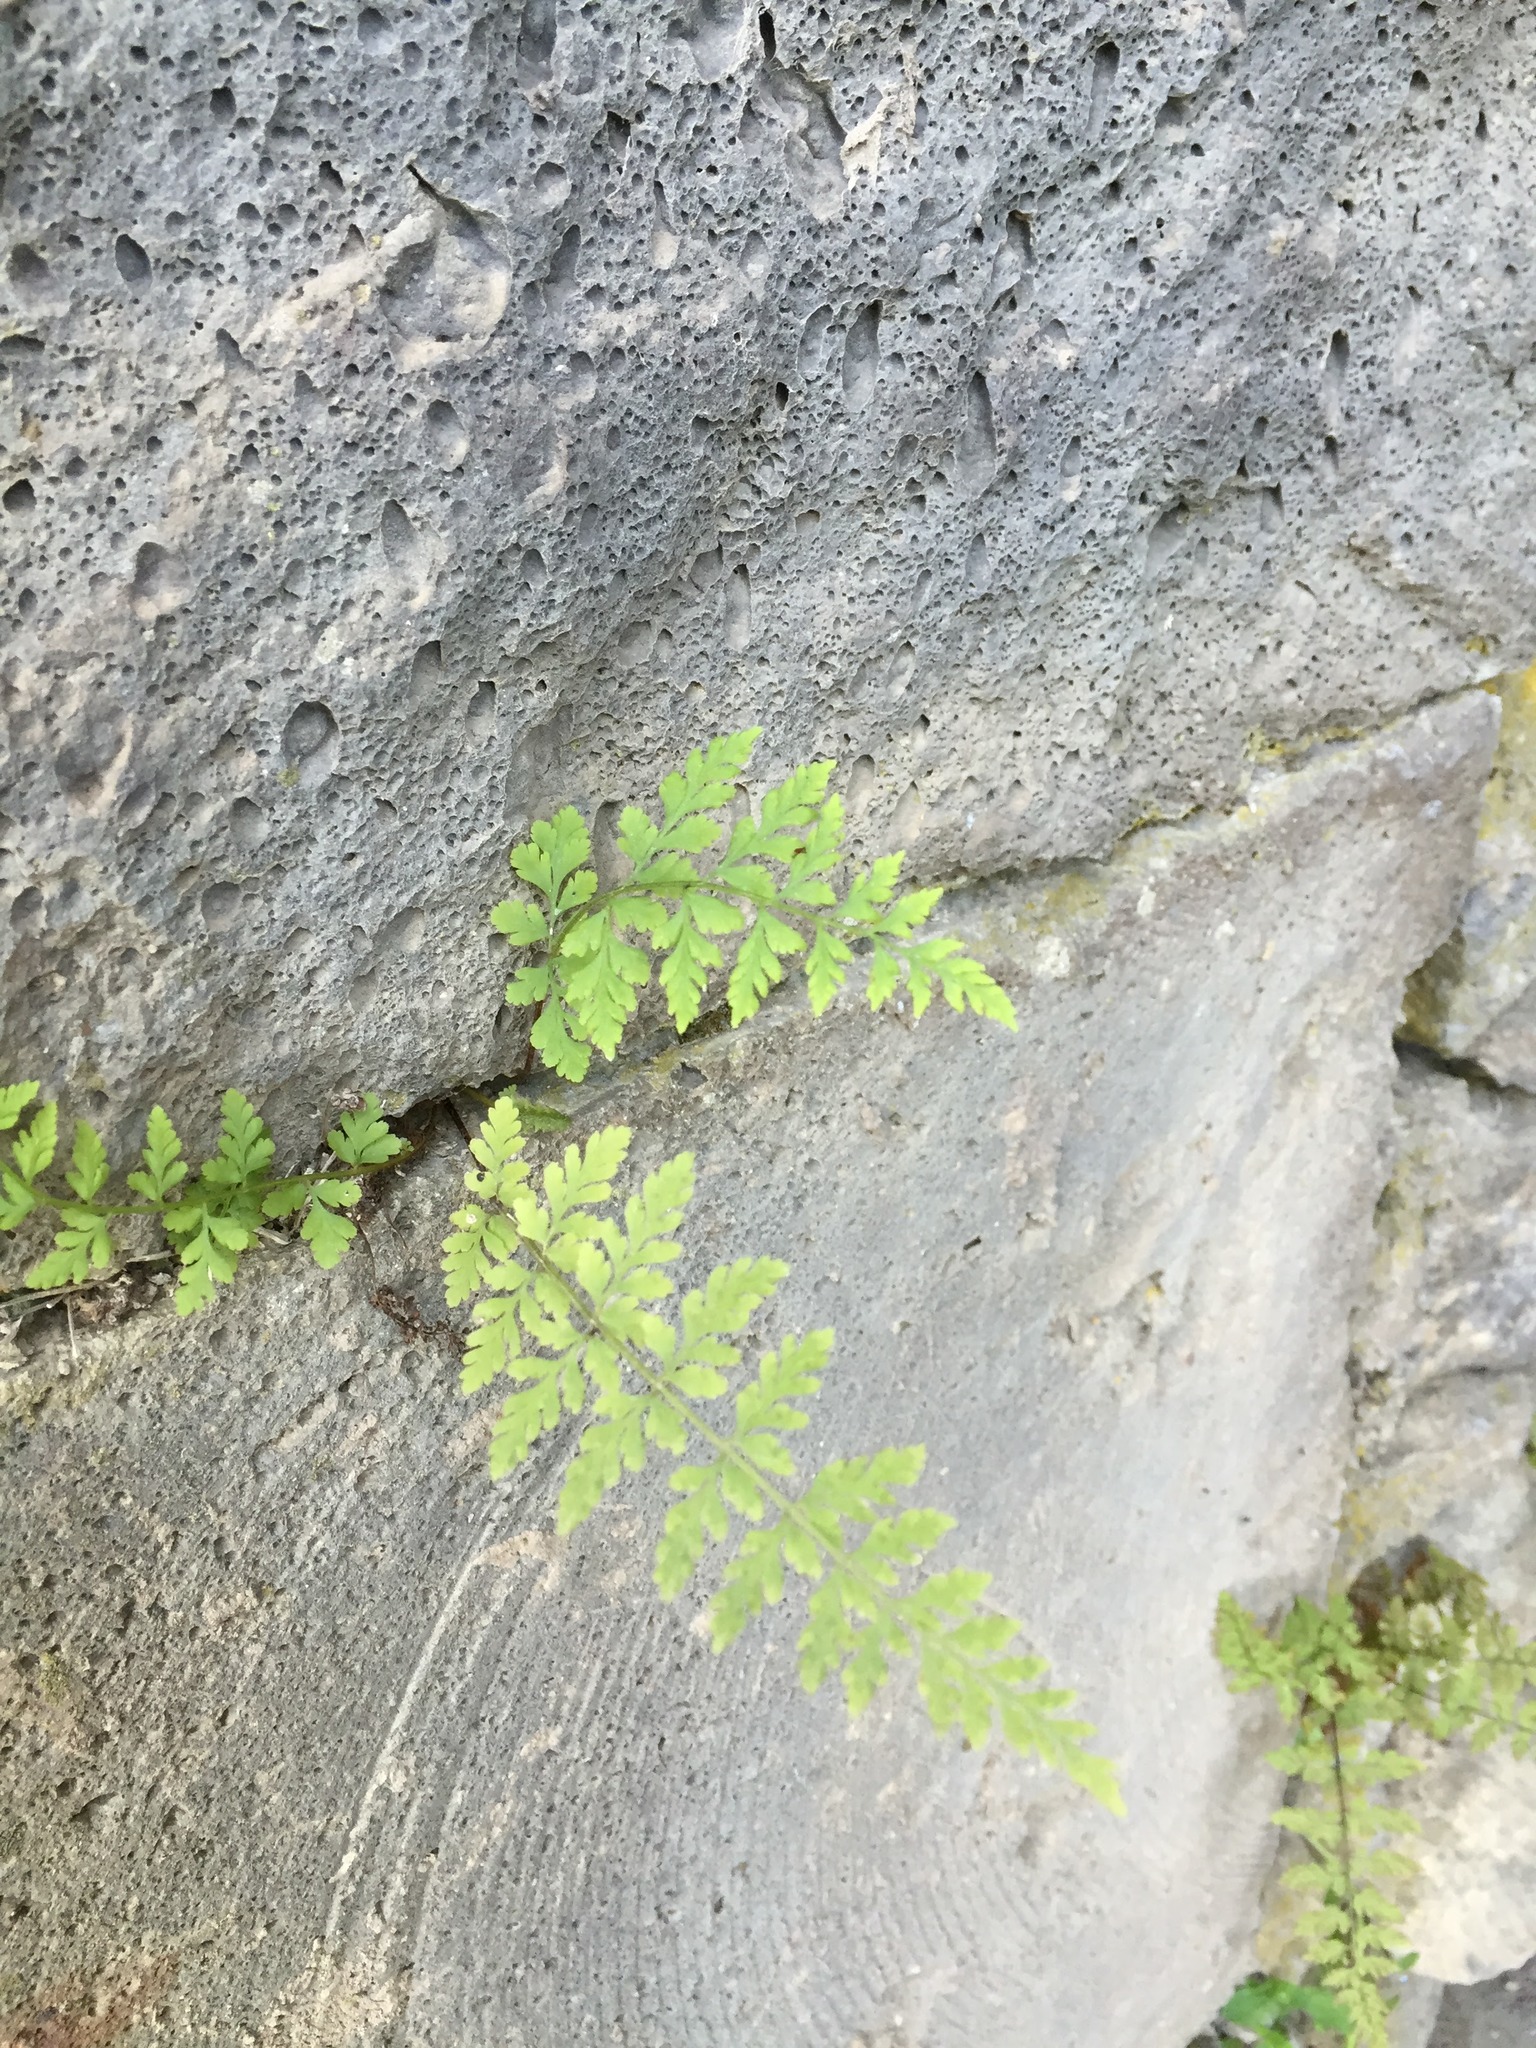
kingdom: Plantae
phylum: Tracheophyta
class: Polypodiopsida
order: Polypodiales
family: Cystopteridaceae
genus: Cystopteris
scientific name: Cystopteris fragilis
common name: Brittle bladder fern
